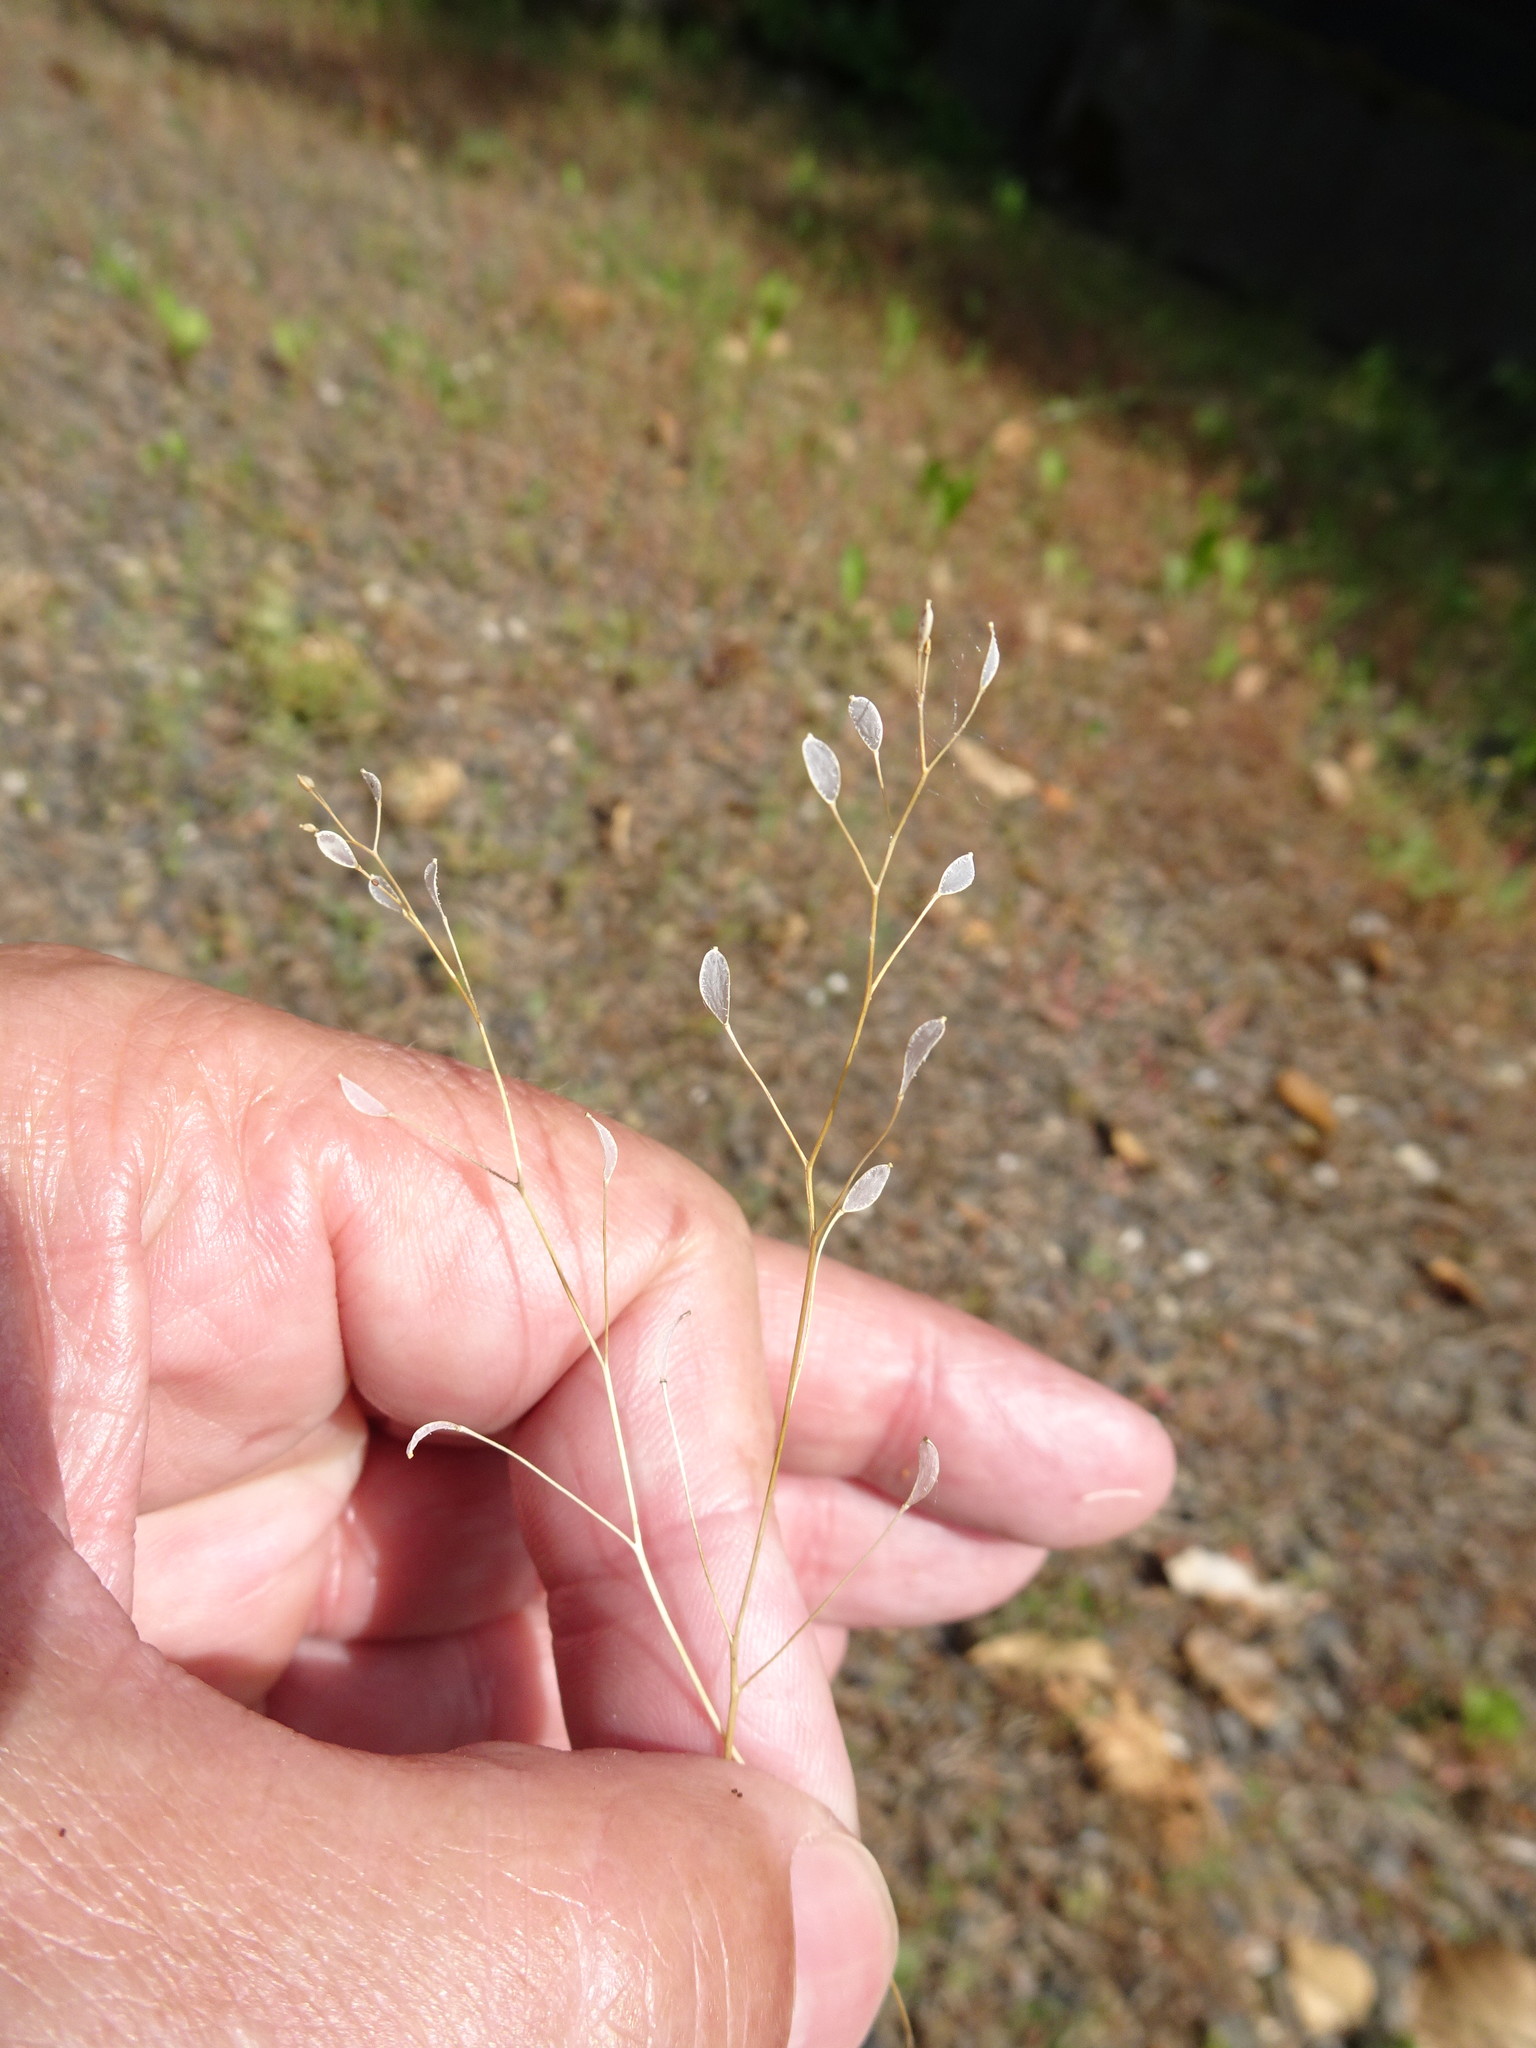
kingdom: Plantae
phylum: Tracheophyta
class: Magnoliopsida
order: Brassicales
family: Brassicaceae
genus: Draba
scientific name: Draba verna
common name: Spring draba
